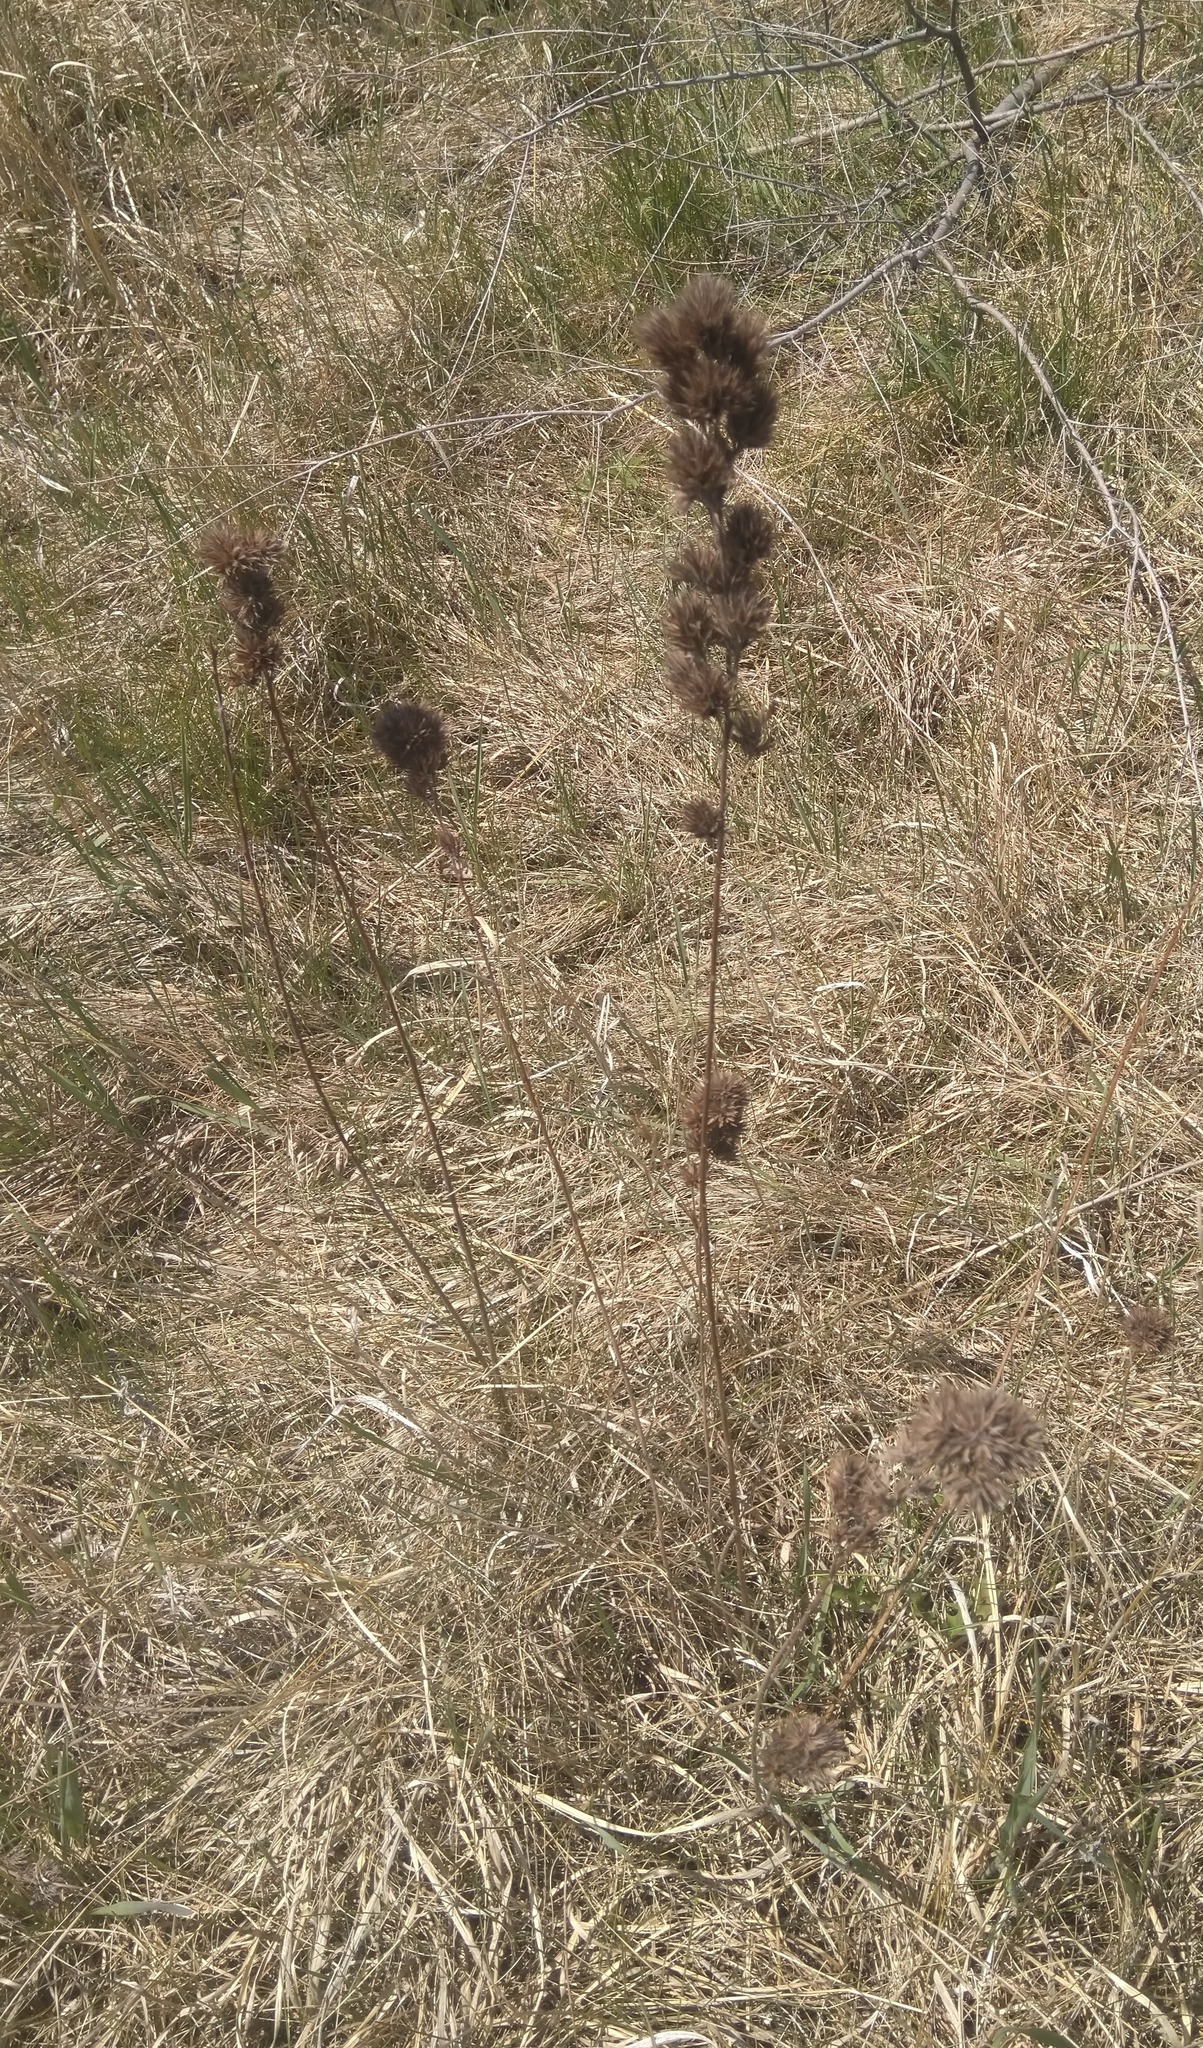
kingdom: Plantae
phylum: Tracheophyta
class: Magnoliopsida
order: Fabales
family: Fabaceae
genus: Lespedeza
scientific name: Lespedeza capitata
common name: Dusty clover
